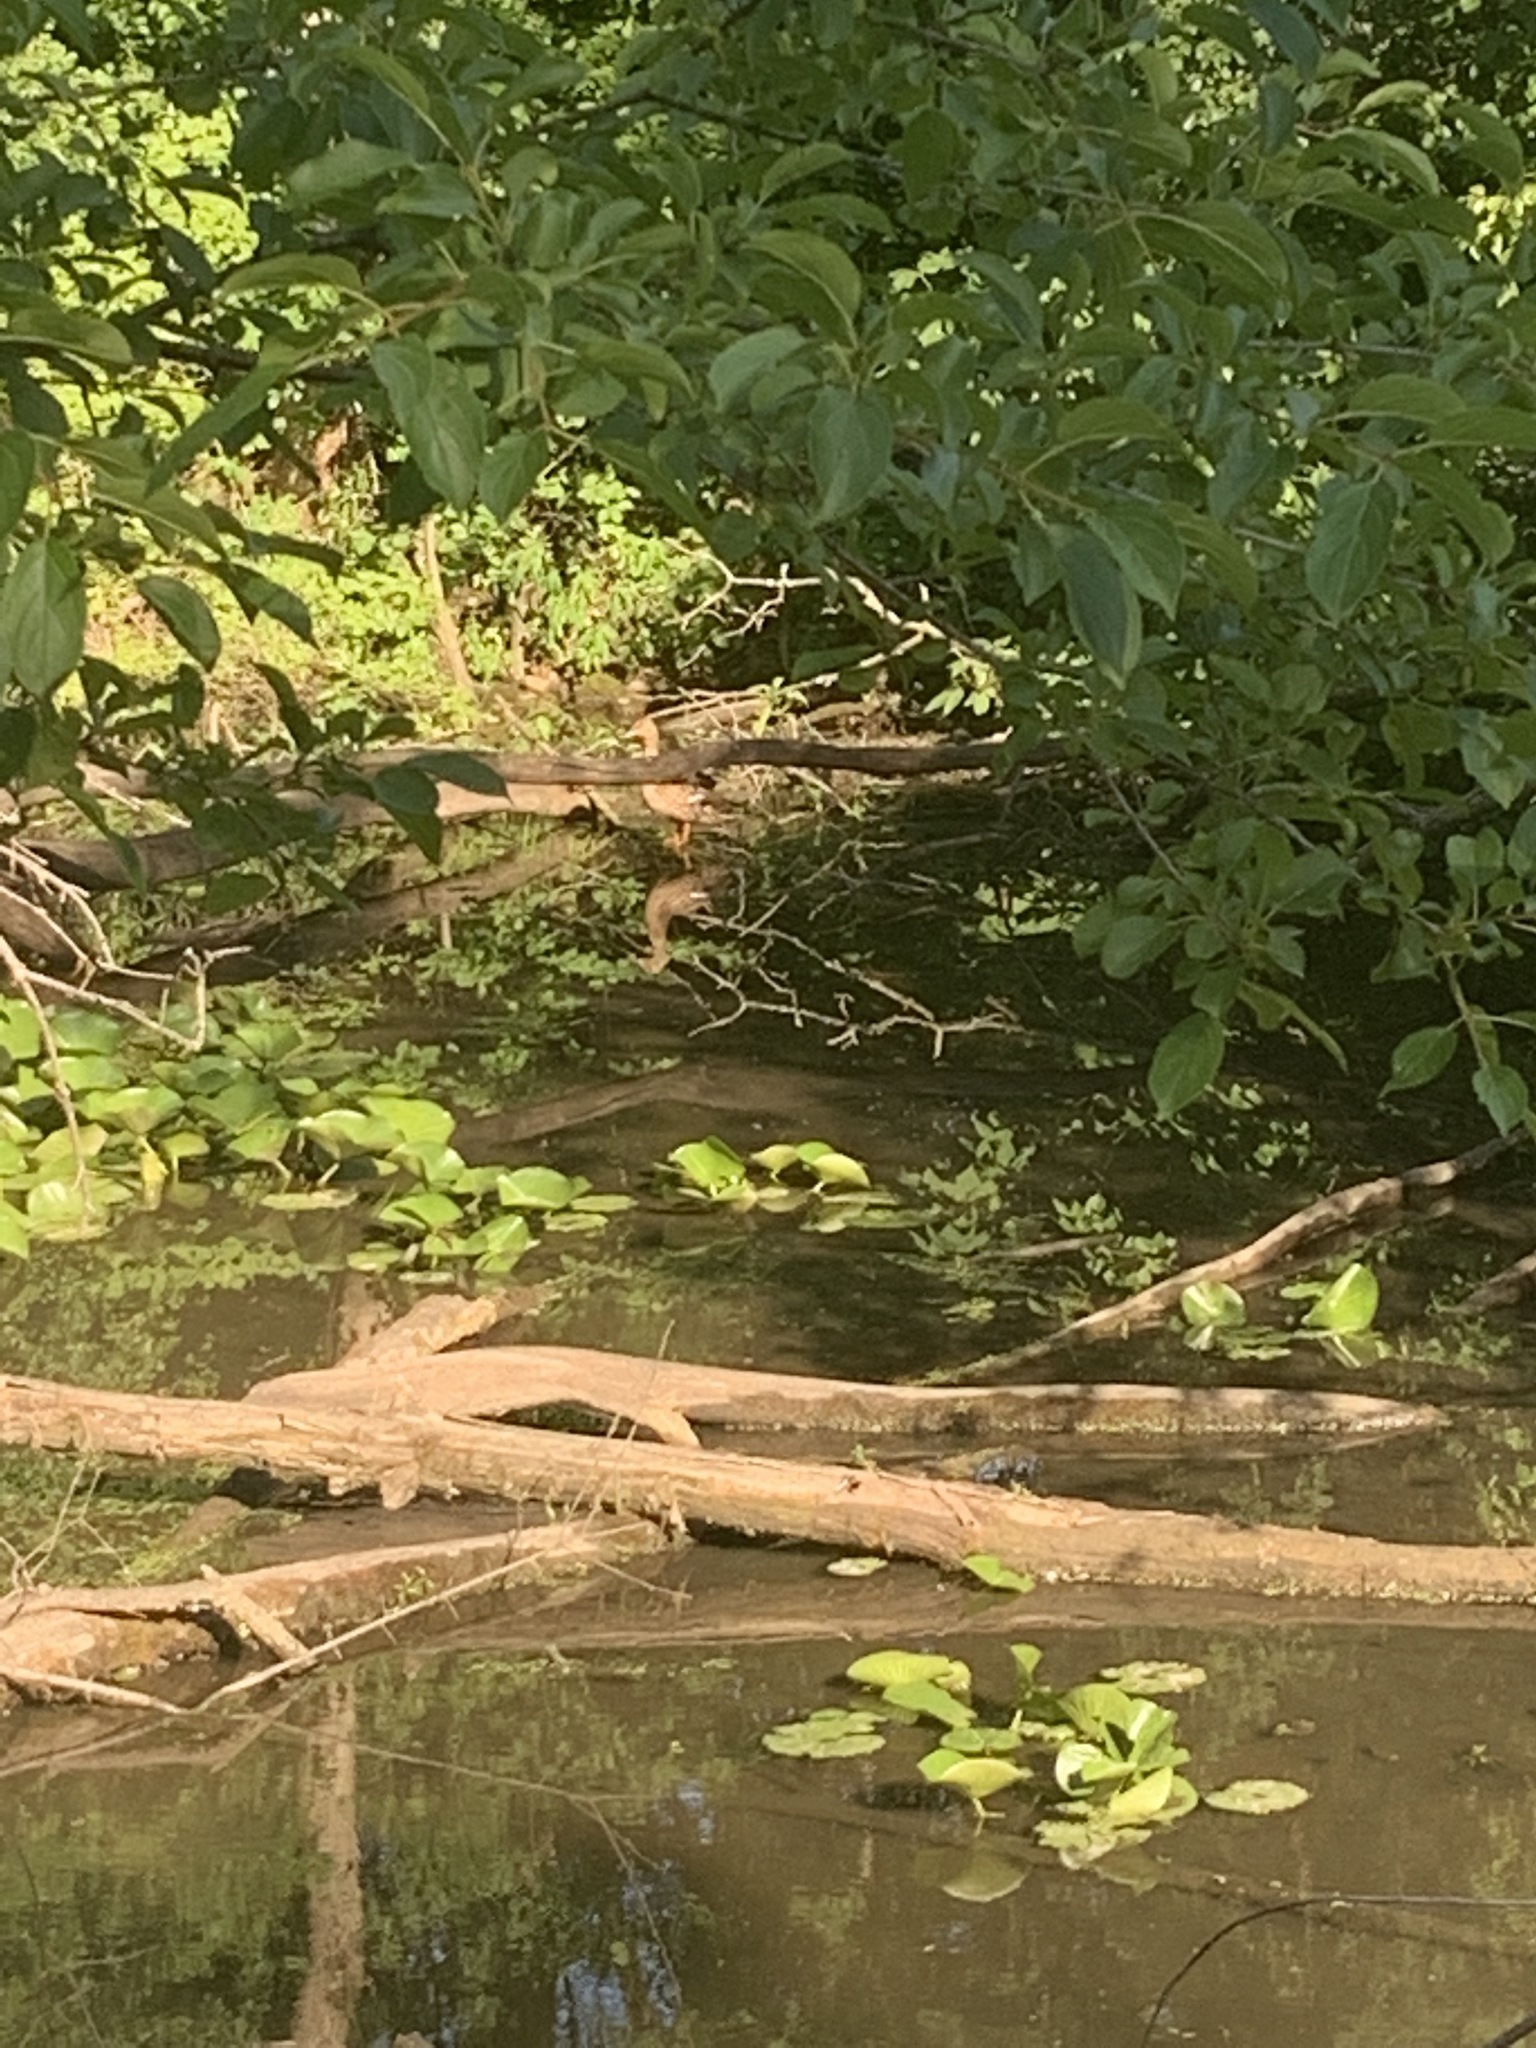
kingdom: Animalia
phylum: Chordata
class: Aves
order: Anseriformes
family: Anatidae
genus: Anas
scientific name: Anas platyrhynchos
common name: Mallard
